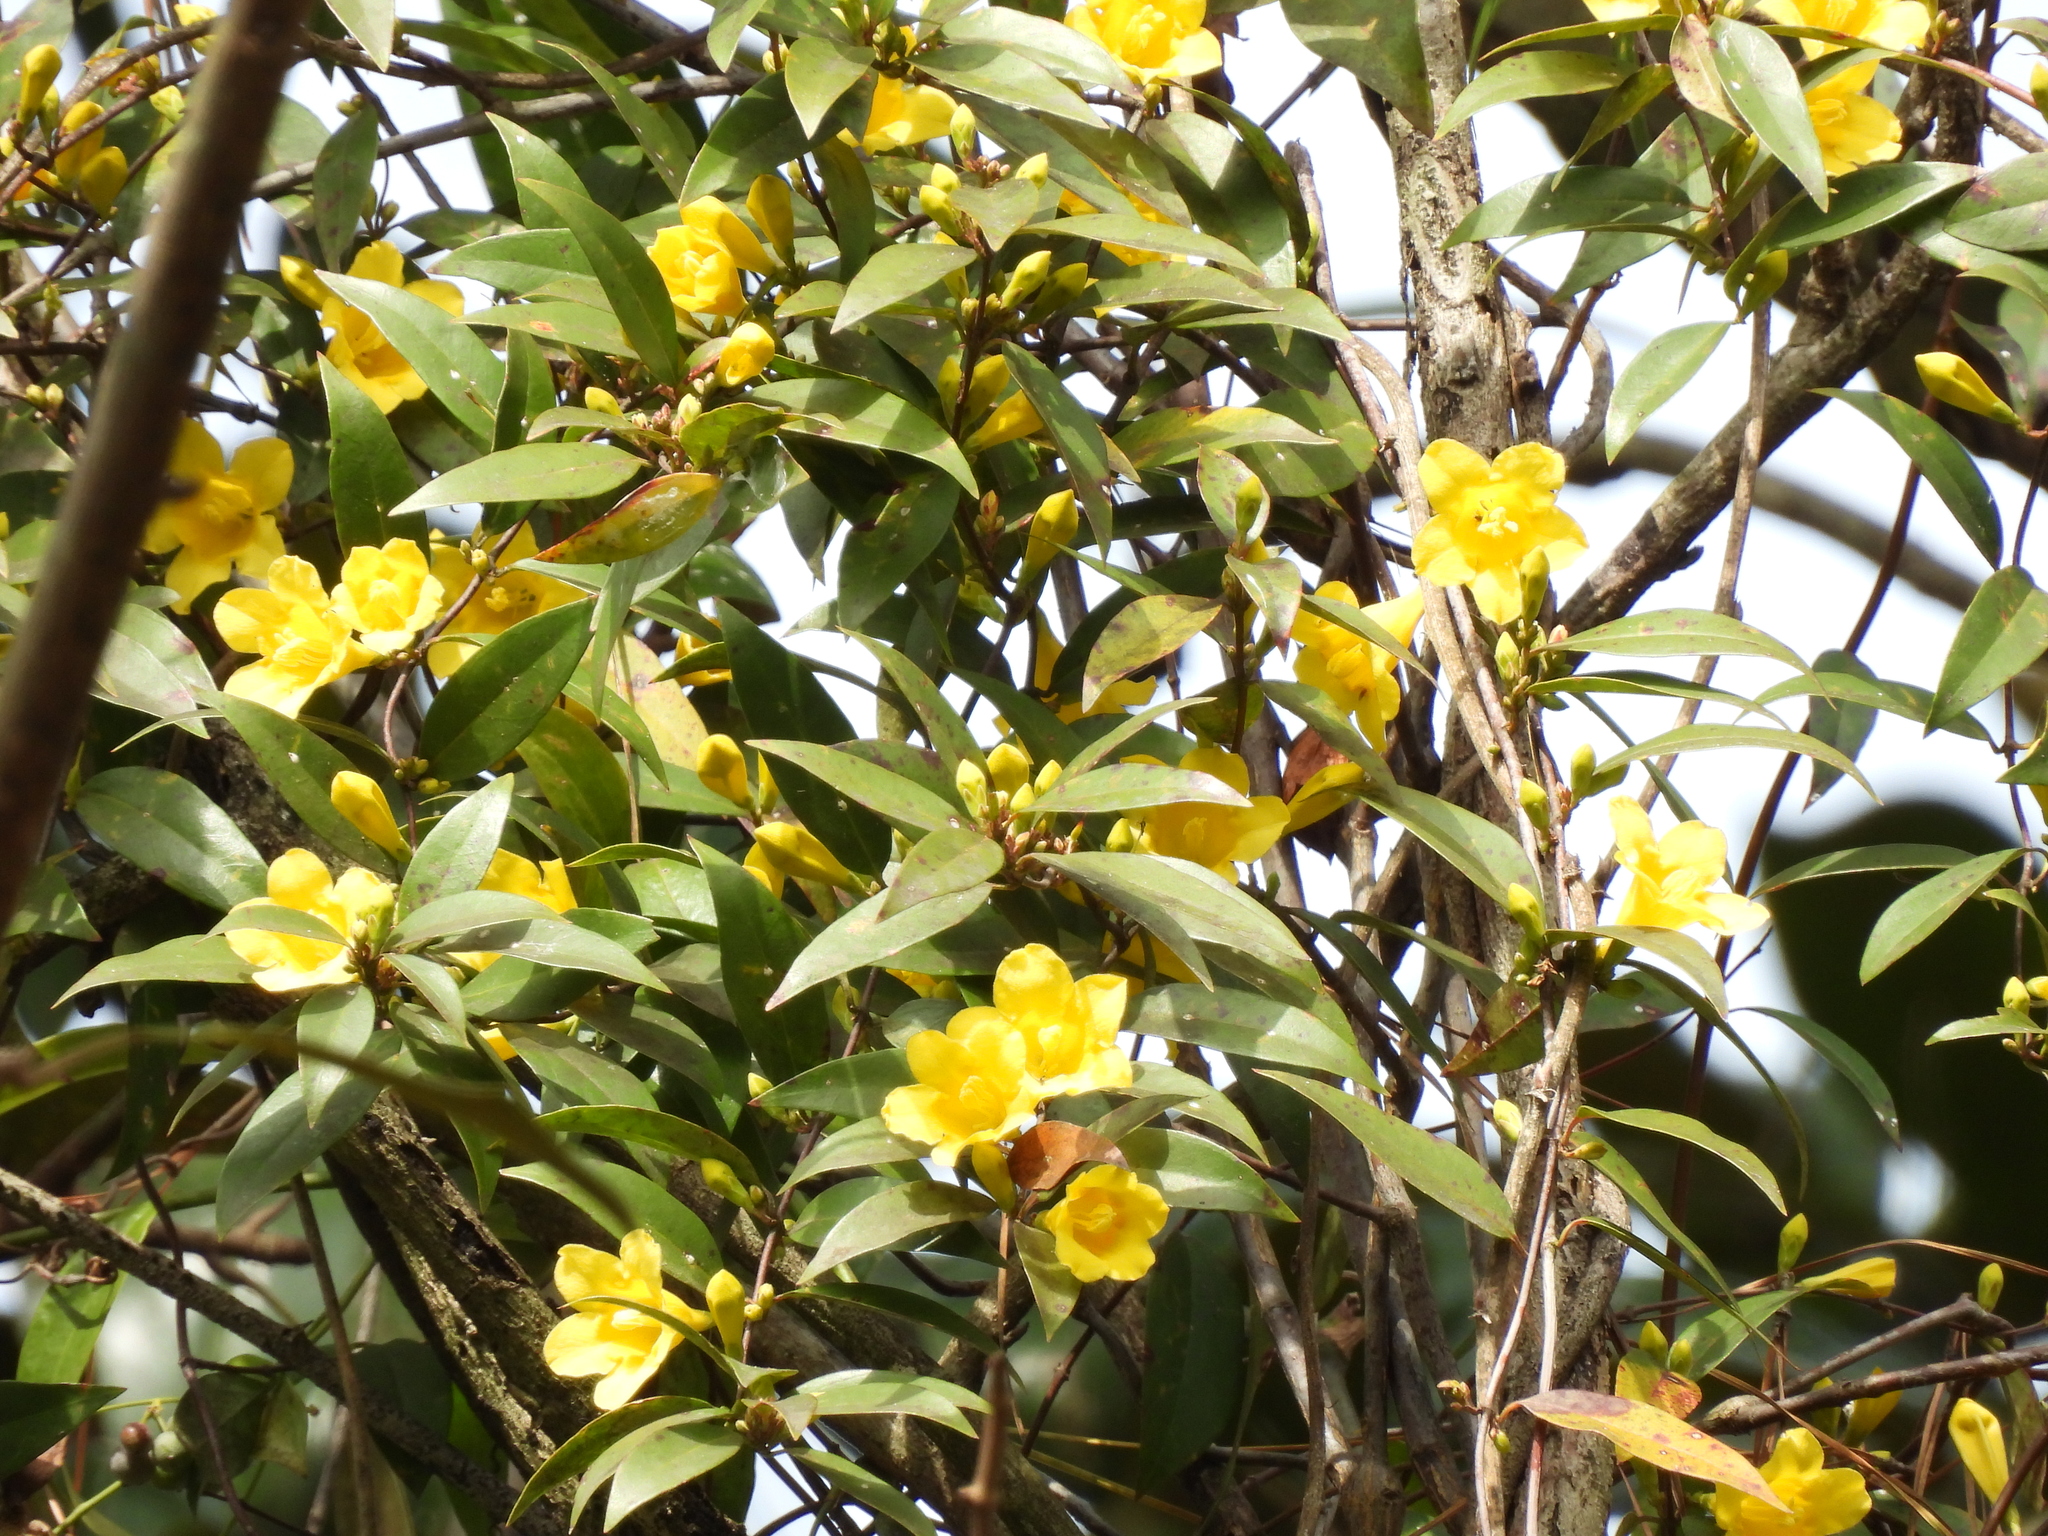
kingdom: Plantae
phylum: Tracheophyta
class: Magnoliopsida
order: Gentianales
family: Gelsemiaceae
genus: Gelsemium
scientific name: Gelsemium sempervirens
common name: Carolina-jasmine
